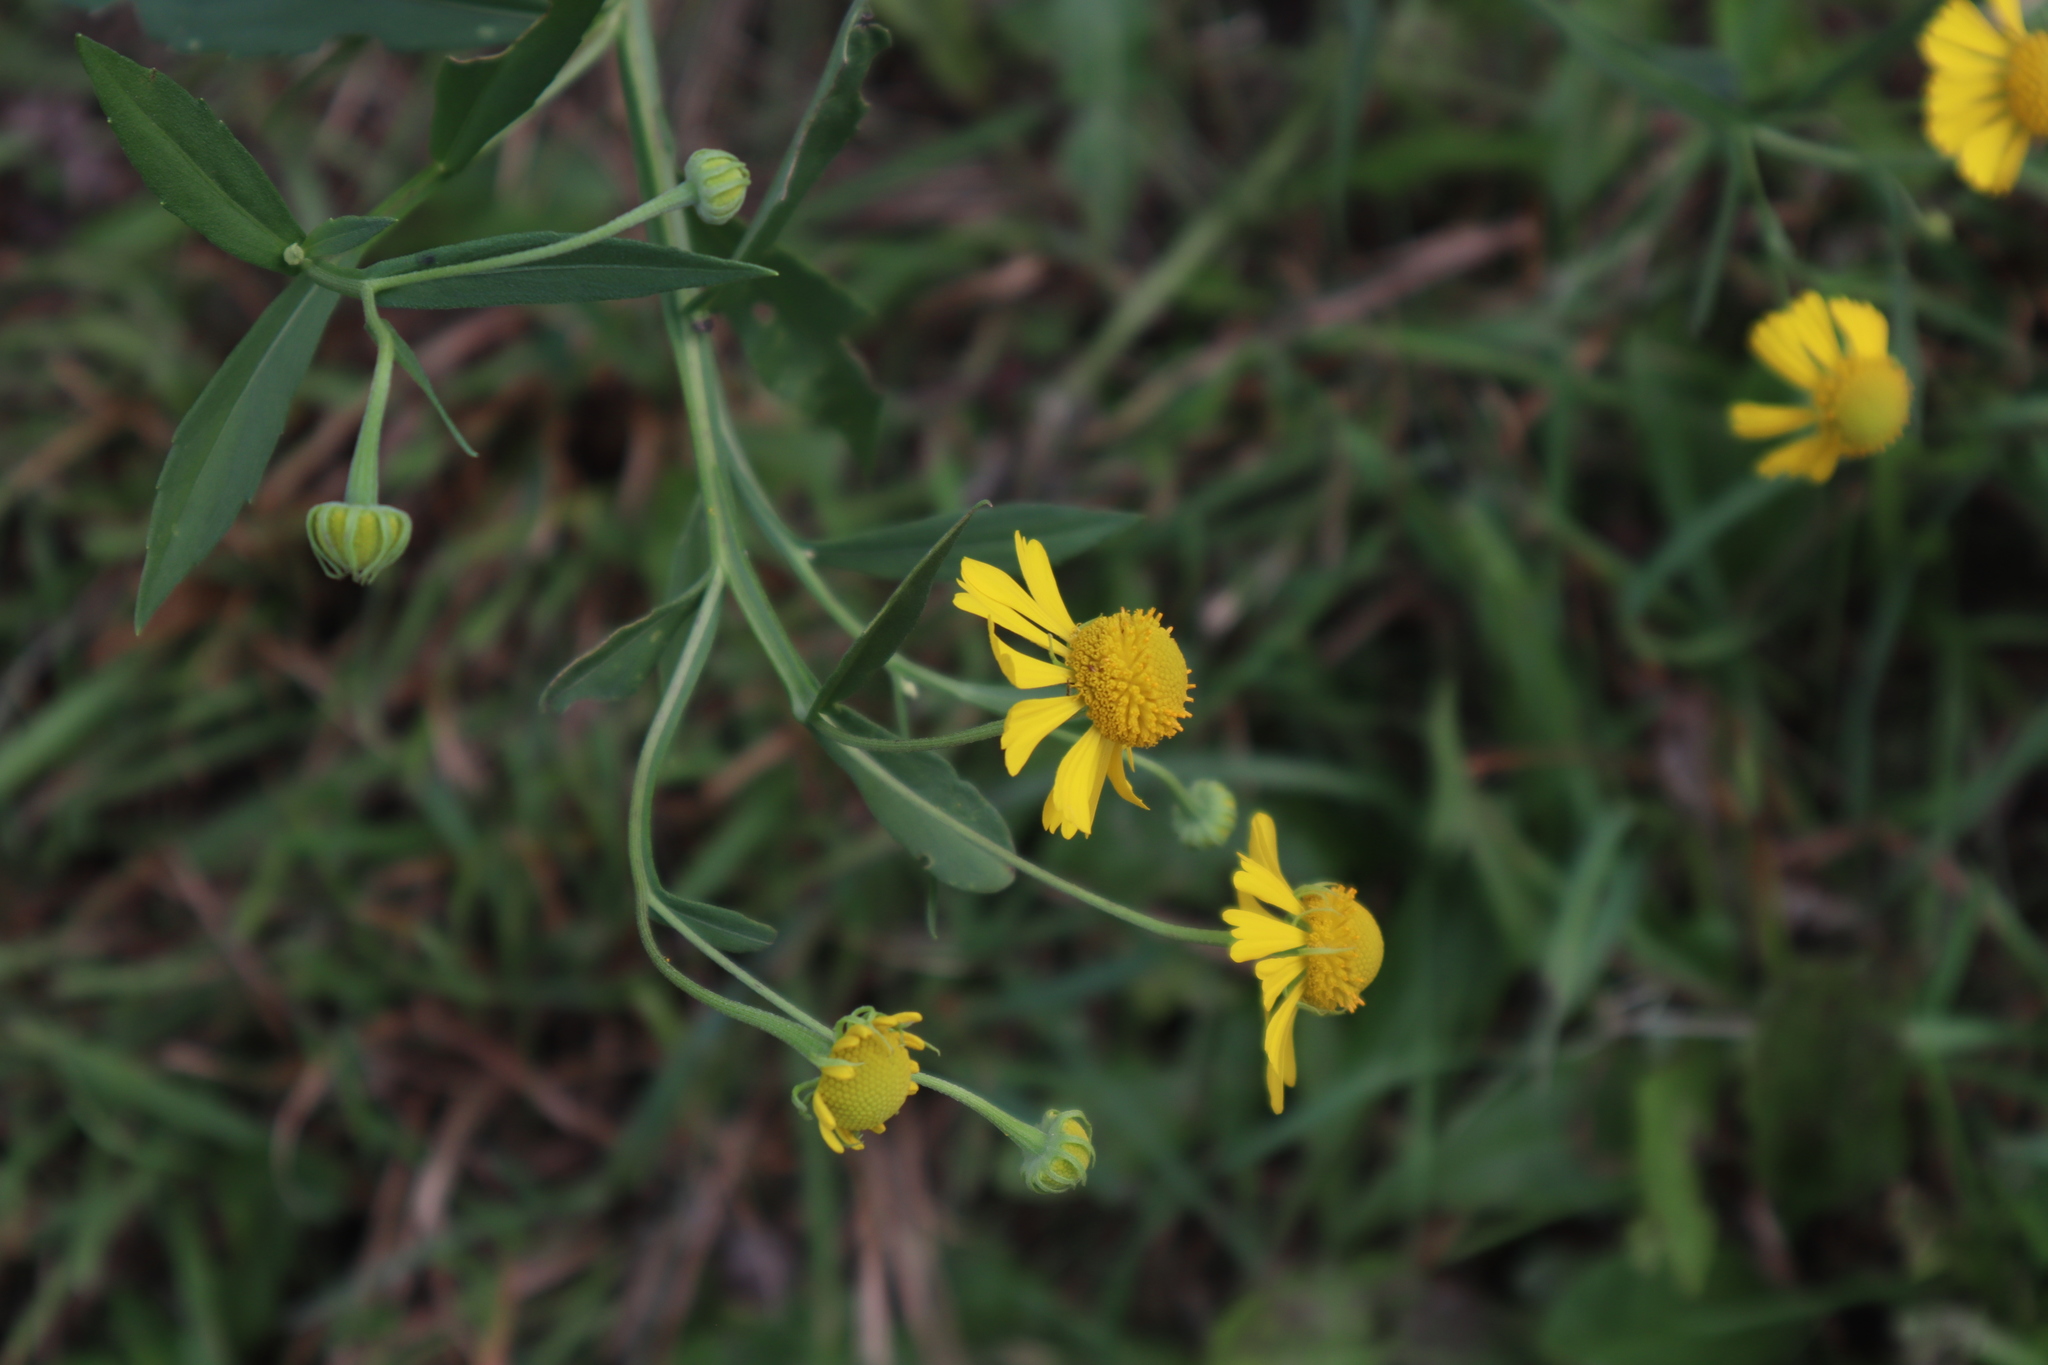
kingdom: Plantae
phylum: Tracheophyta
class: Magnoliopsida
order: Asterales
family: Asteraceae
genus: Helenium
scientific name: Helenium autumnale
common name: Sneezeweed
